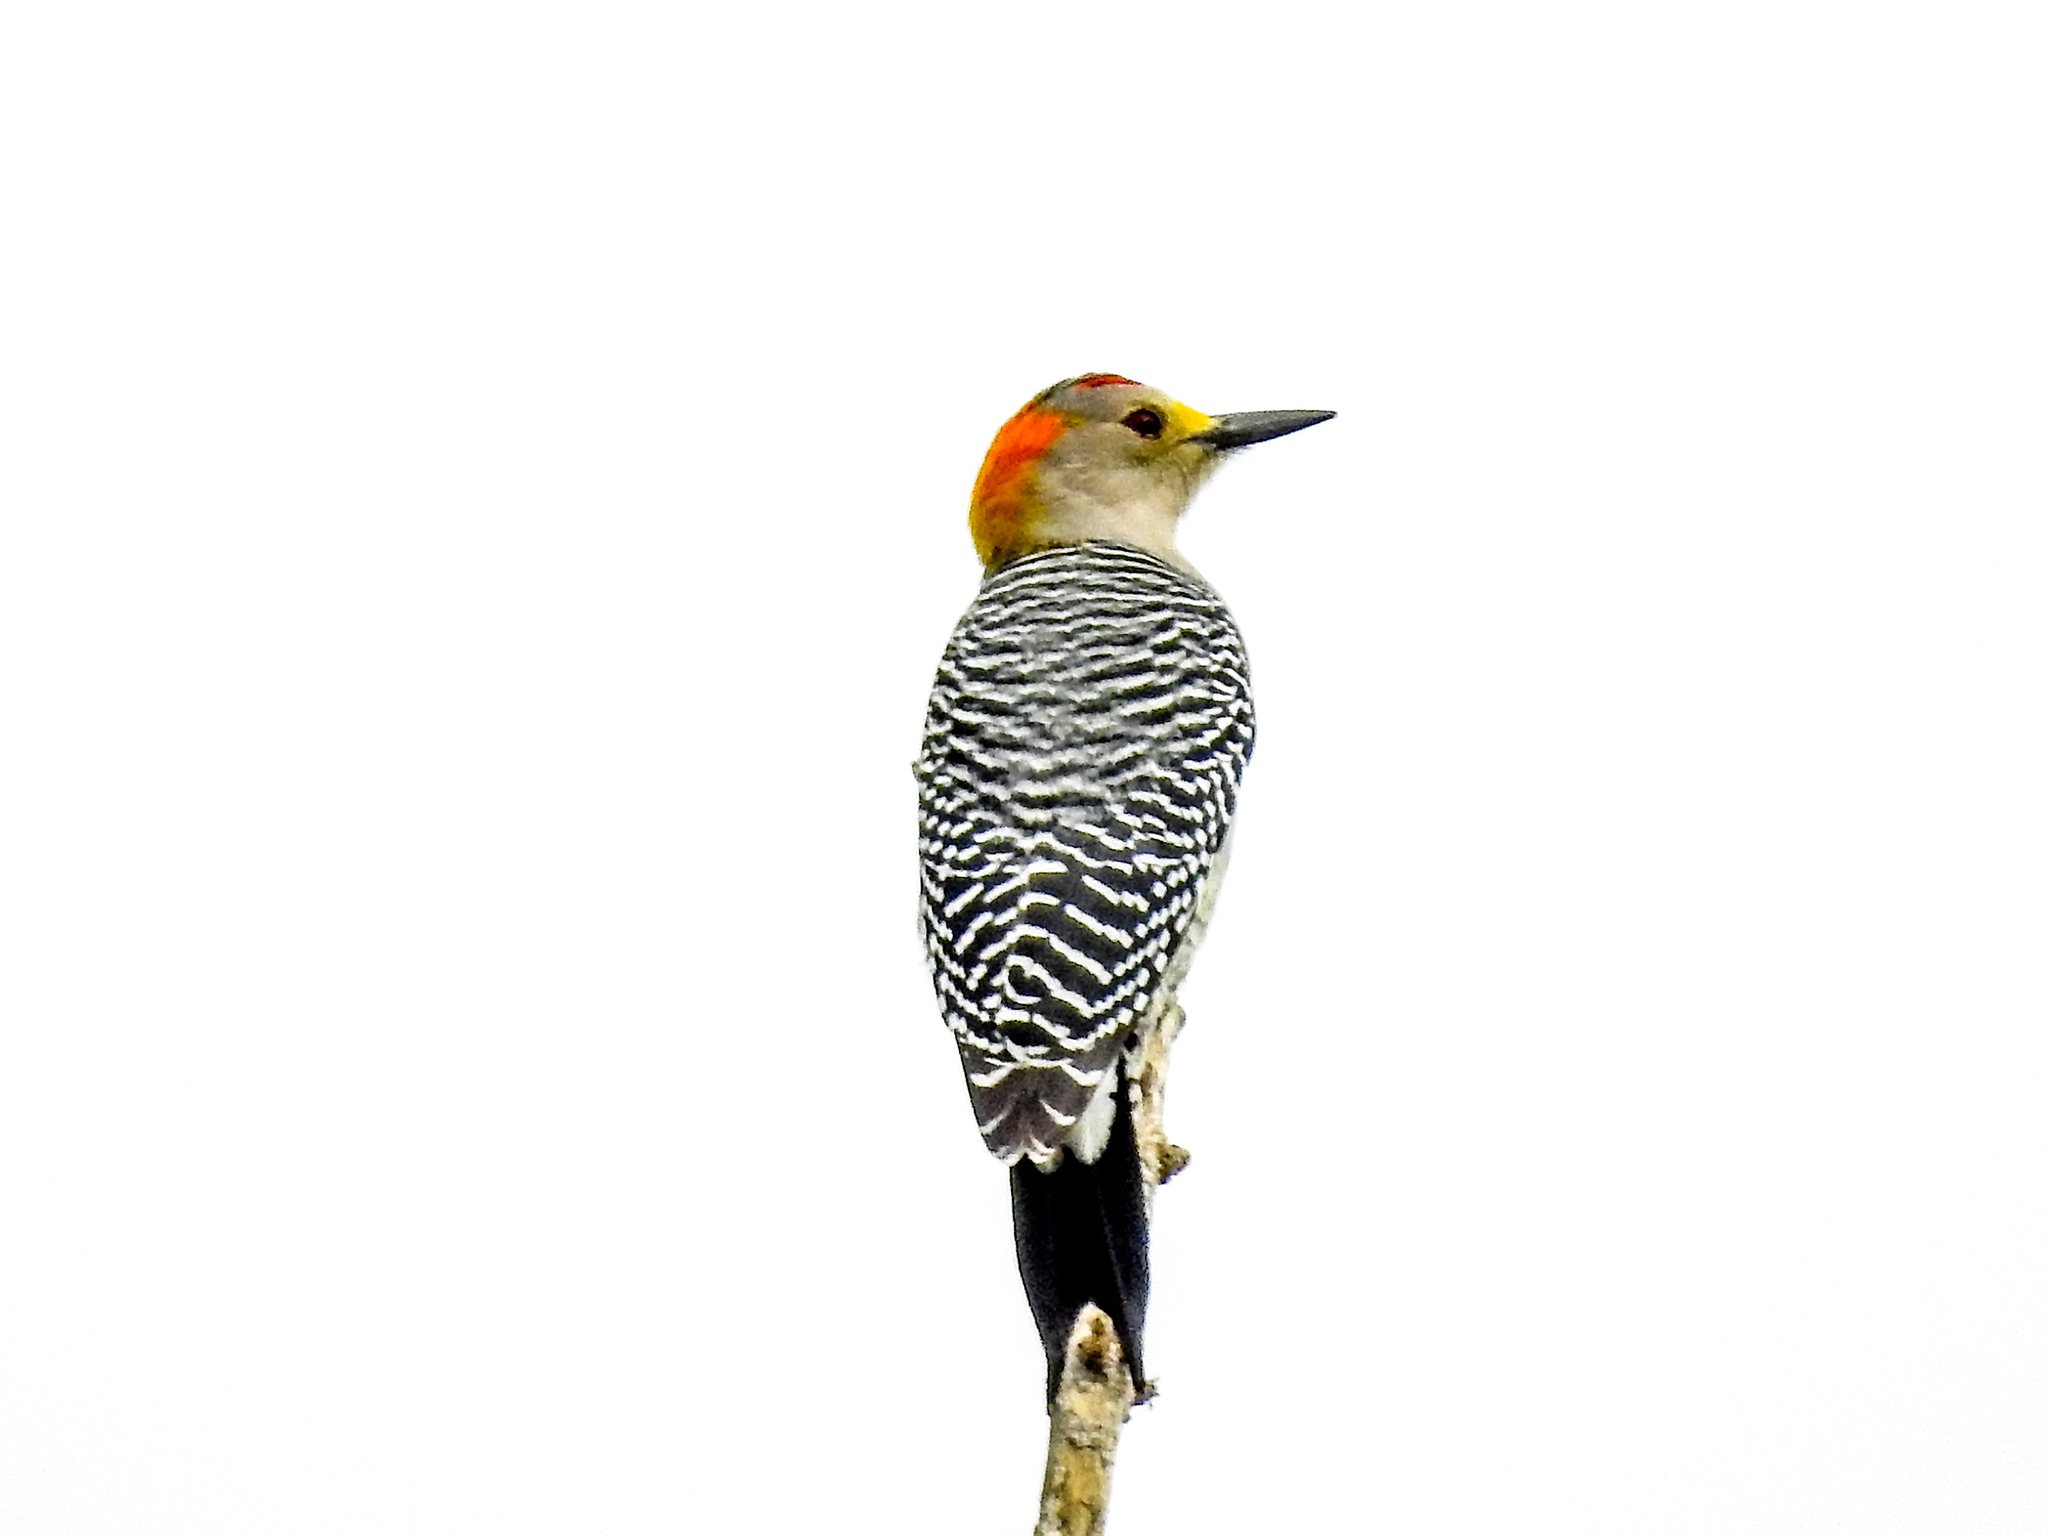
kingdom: Animalia
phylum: Chordata
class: Aves
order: Piciformes
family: Picidae
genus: Melanerpes
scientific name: Melanerpes aurifrons
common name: Golden-fronted woodpecker
